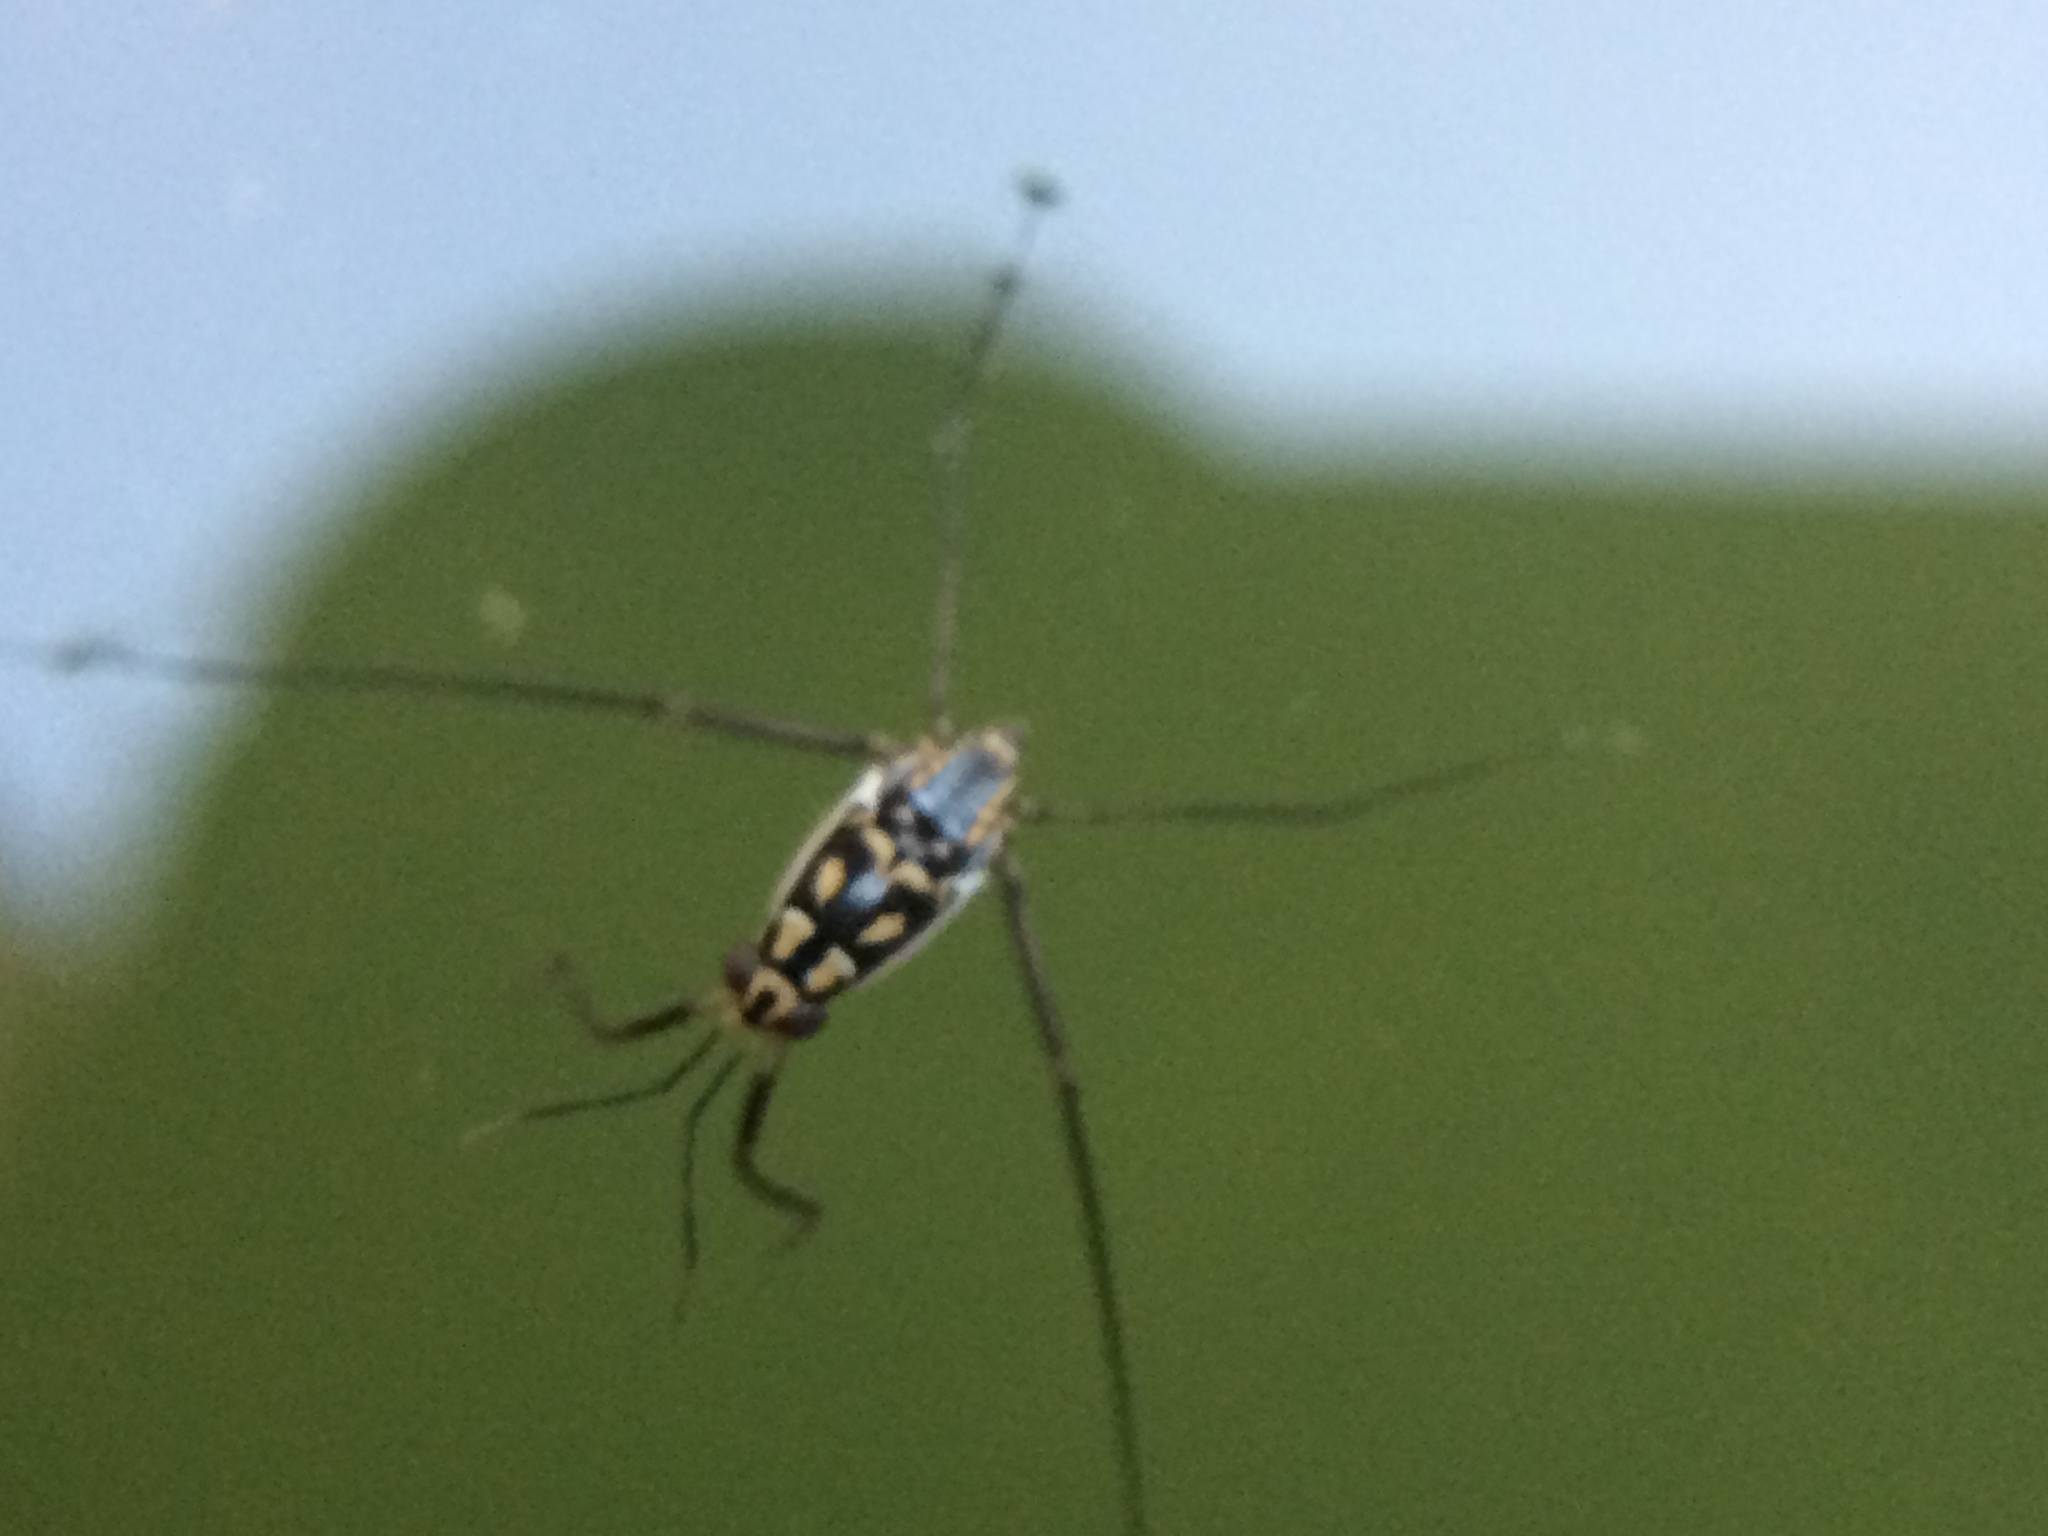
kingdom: Animalia
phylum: Arthropoda
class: Insecta
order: Hemiptera
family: Gerridae
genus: Trepobates
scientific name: Trepobates subnitidus
